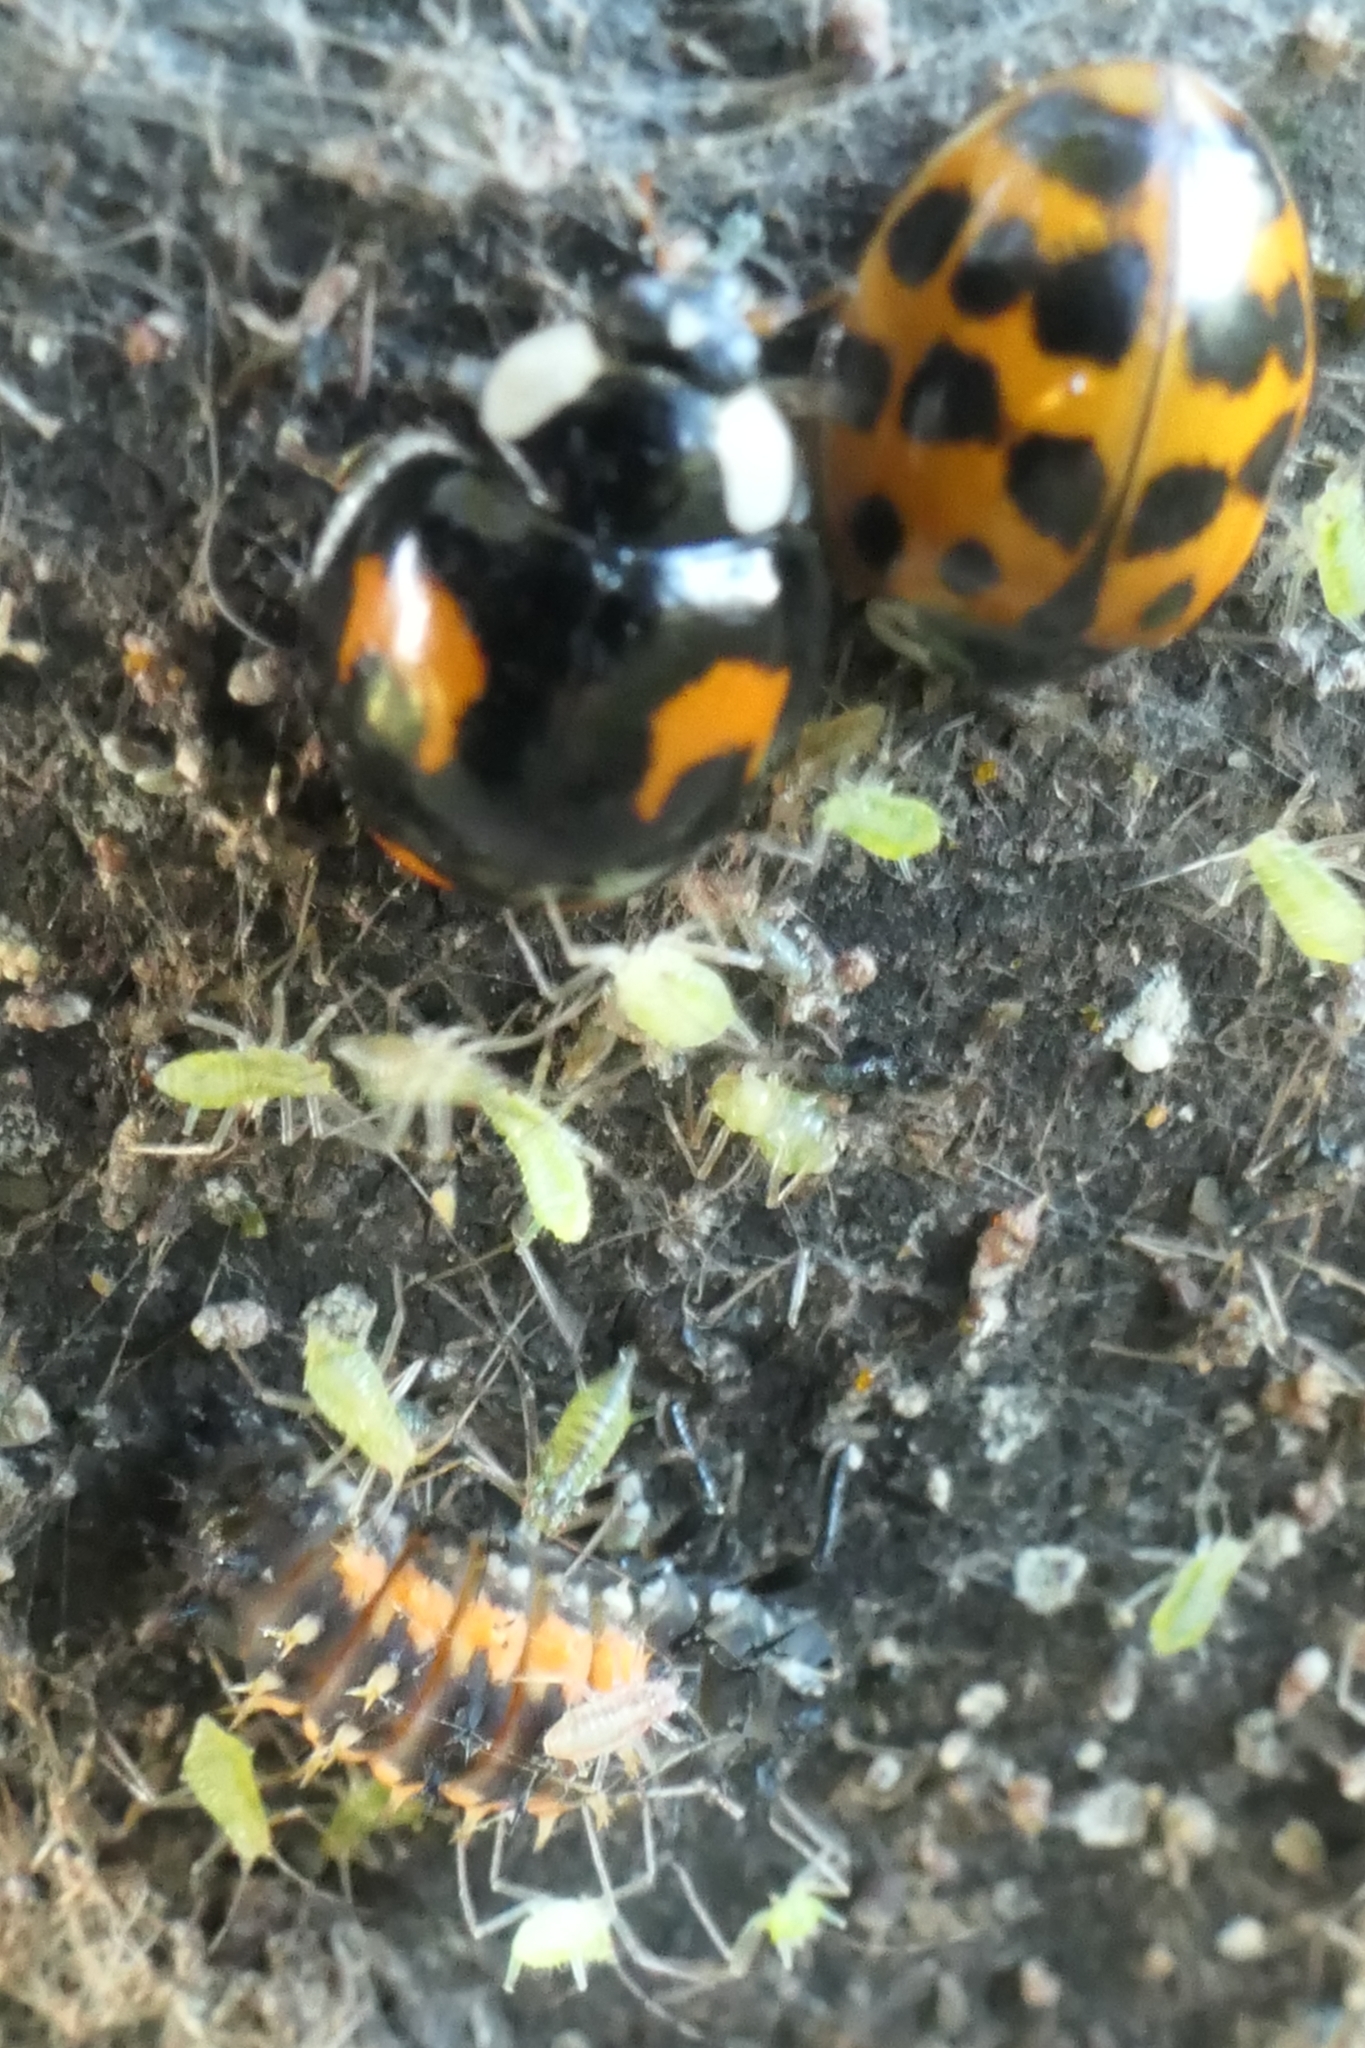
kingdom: Animalia
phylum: Arthropoda
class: Insecta
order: Coleoptera
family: Coccinellidae
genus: Harmonia
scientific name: Harmonia axyridis
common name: Harlequin ladybird
